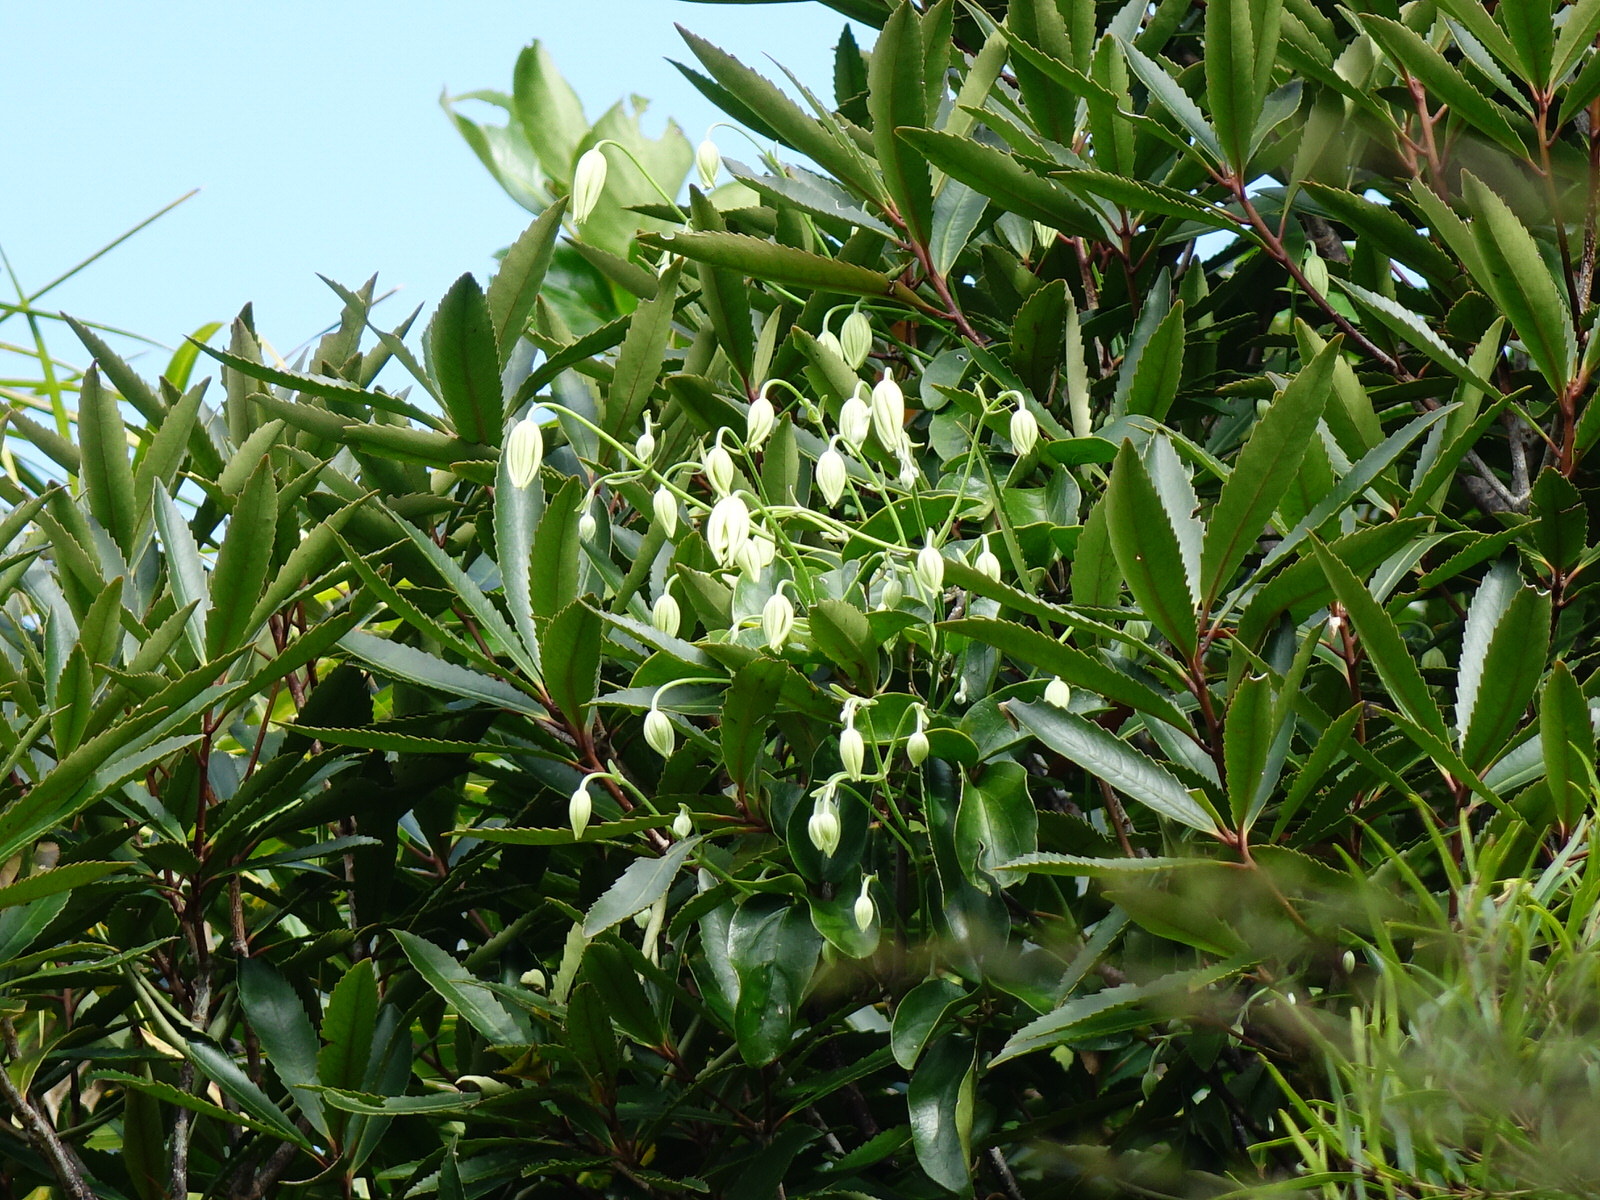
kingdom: Plantae
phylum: Tracheophyta
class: Magnoliopsida
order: Ranunculales
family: Ranunculaceae
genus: Clematis
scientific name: Clematis paniculata
